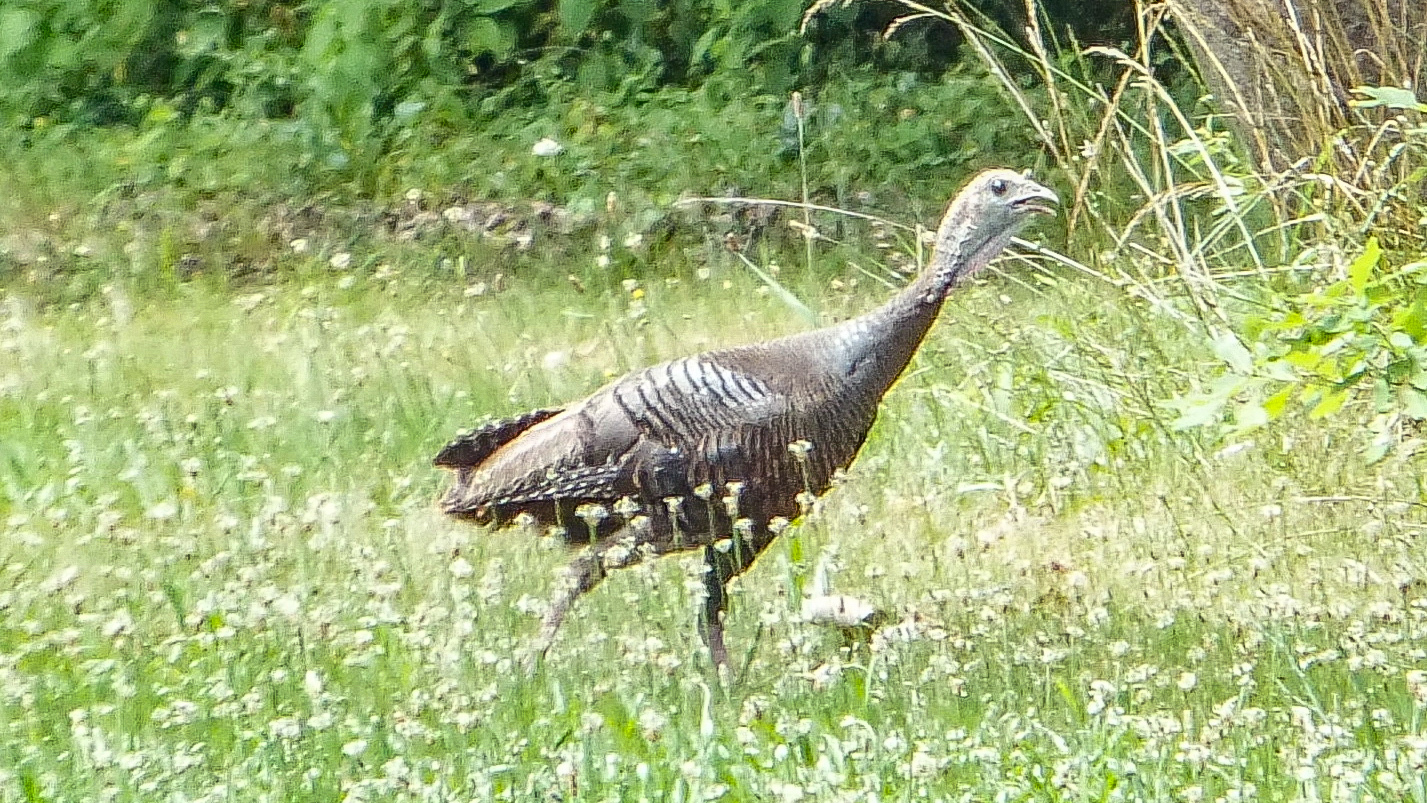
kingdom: Animalia
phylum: Chordata
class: Aves
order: Galliformes
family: Phasianidae
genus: Meleagris
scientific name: Meleagris gallopavo
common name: Wild turkey
